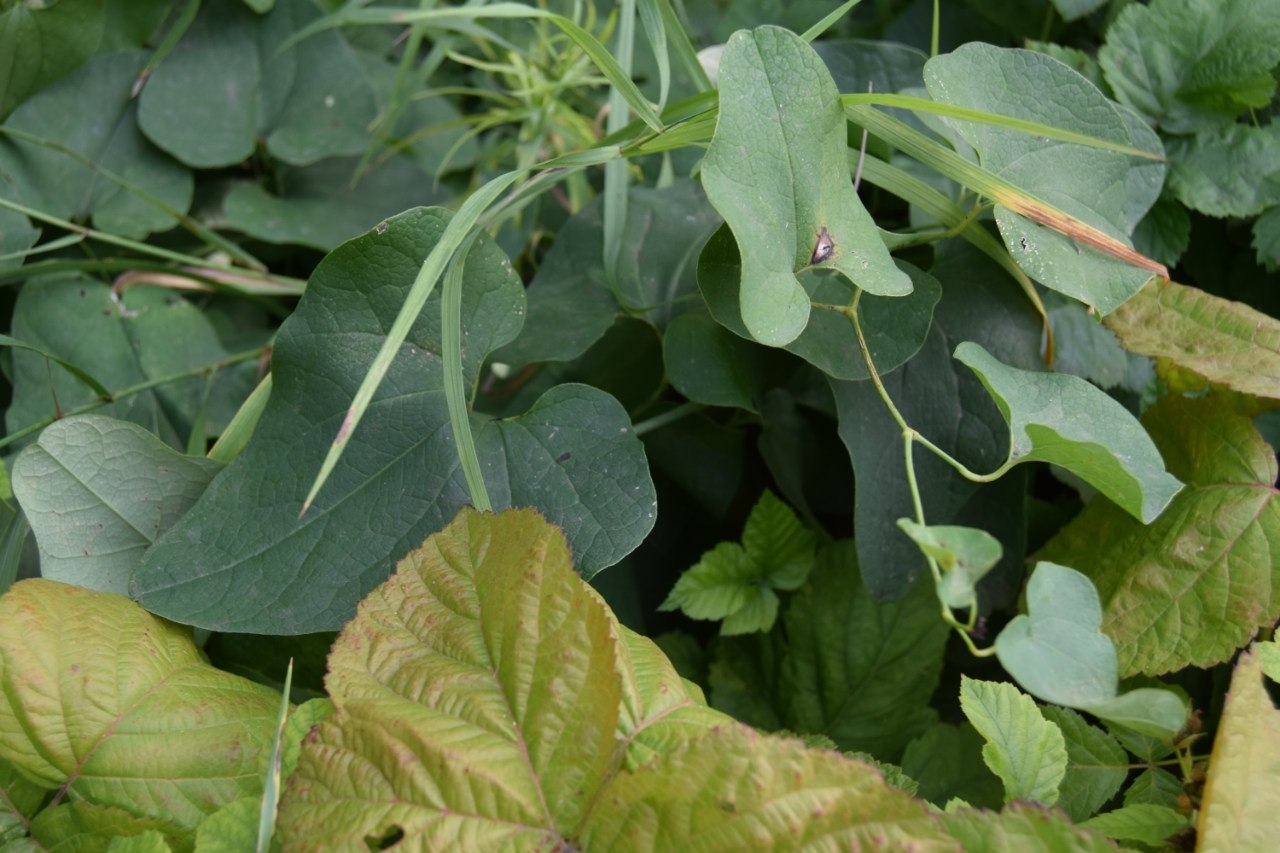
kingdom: Plantae
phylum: Tracheophyta
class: Magnoliopsida
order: Piperales
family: Aristolochiaceae
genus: Aristolochia
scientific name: Aristolochia clematitis
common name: Birthwort
